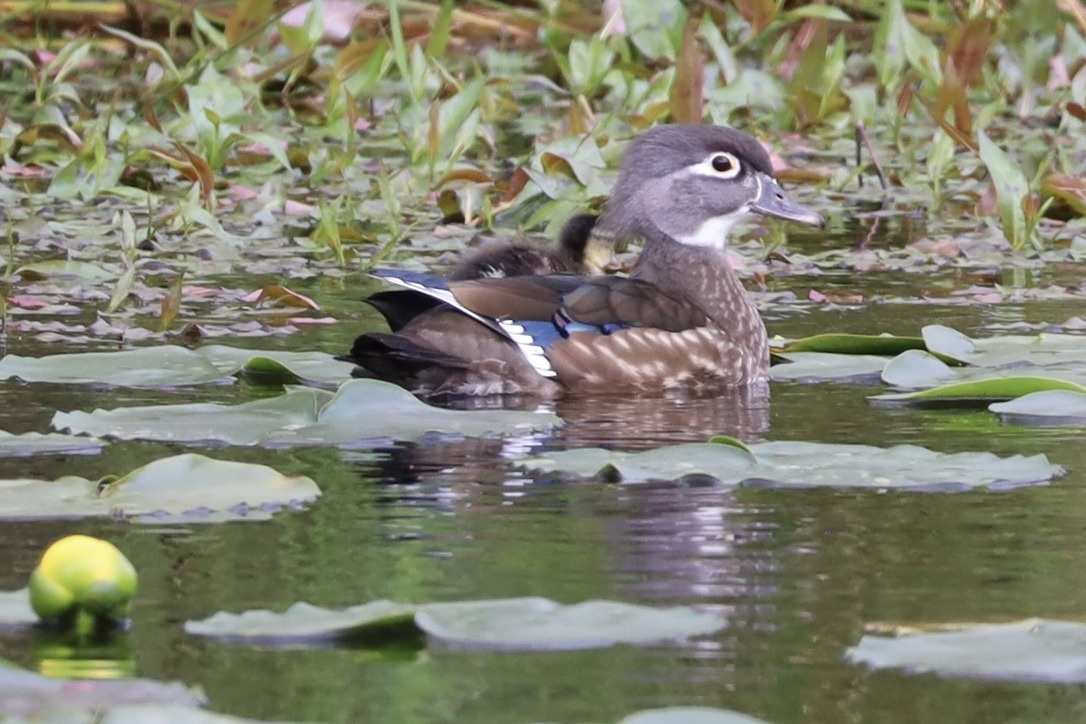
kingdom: Animalia
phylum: Chordata
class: Aves
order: Anseriformes
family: Anatidae
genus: Aix
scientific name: Aix sponsa
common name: Wood duck
